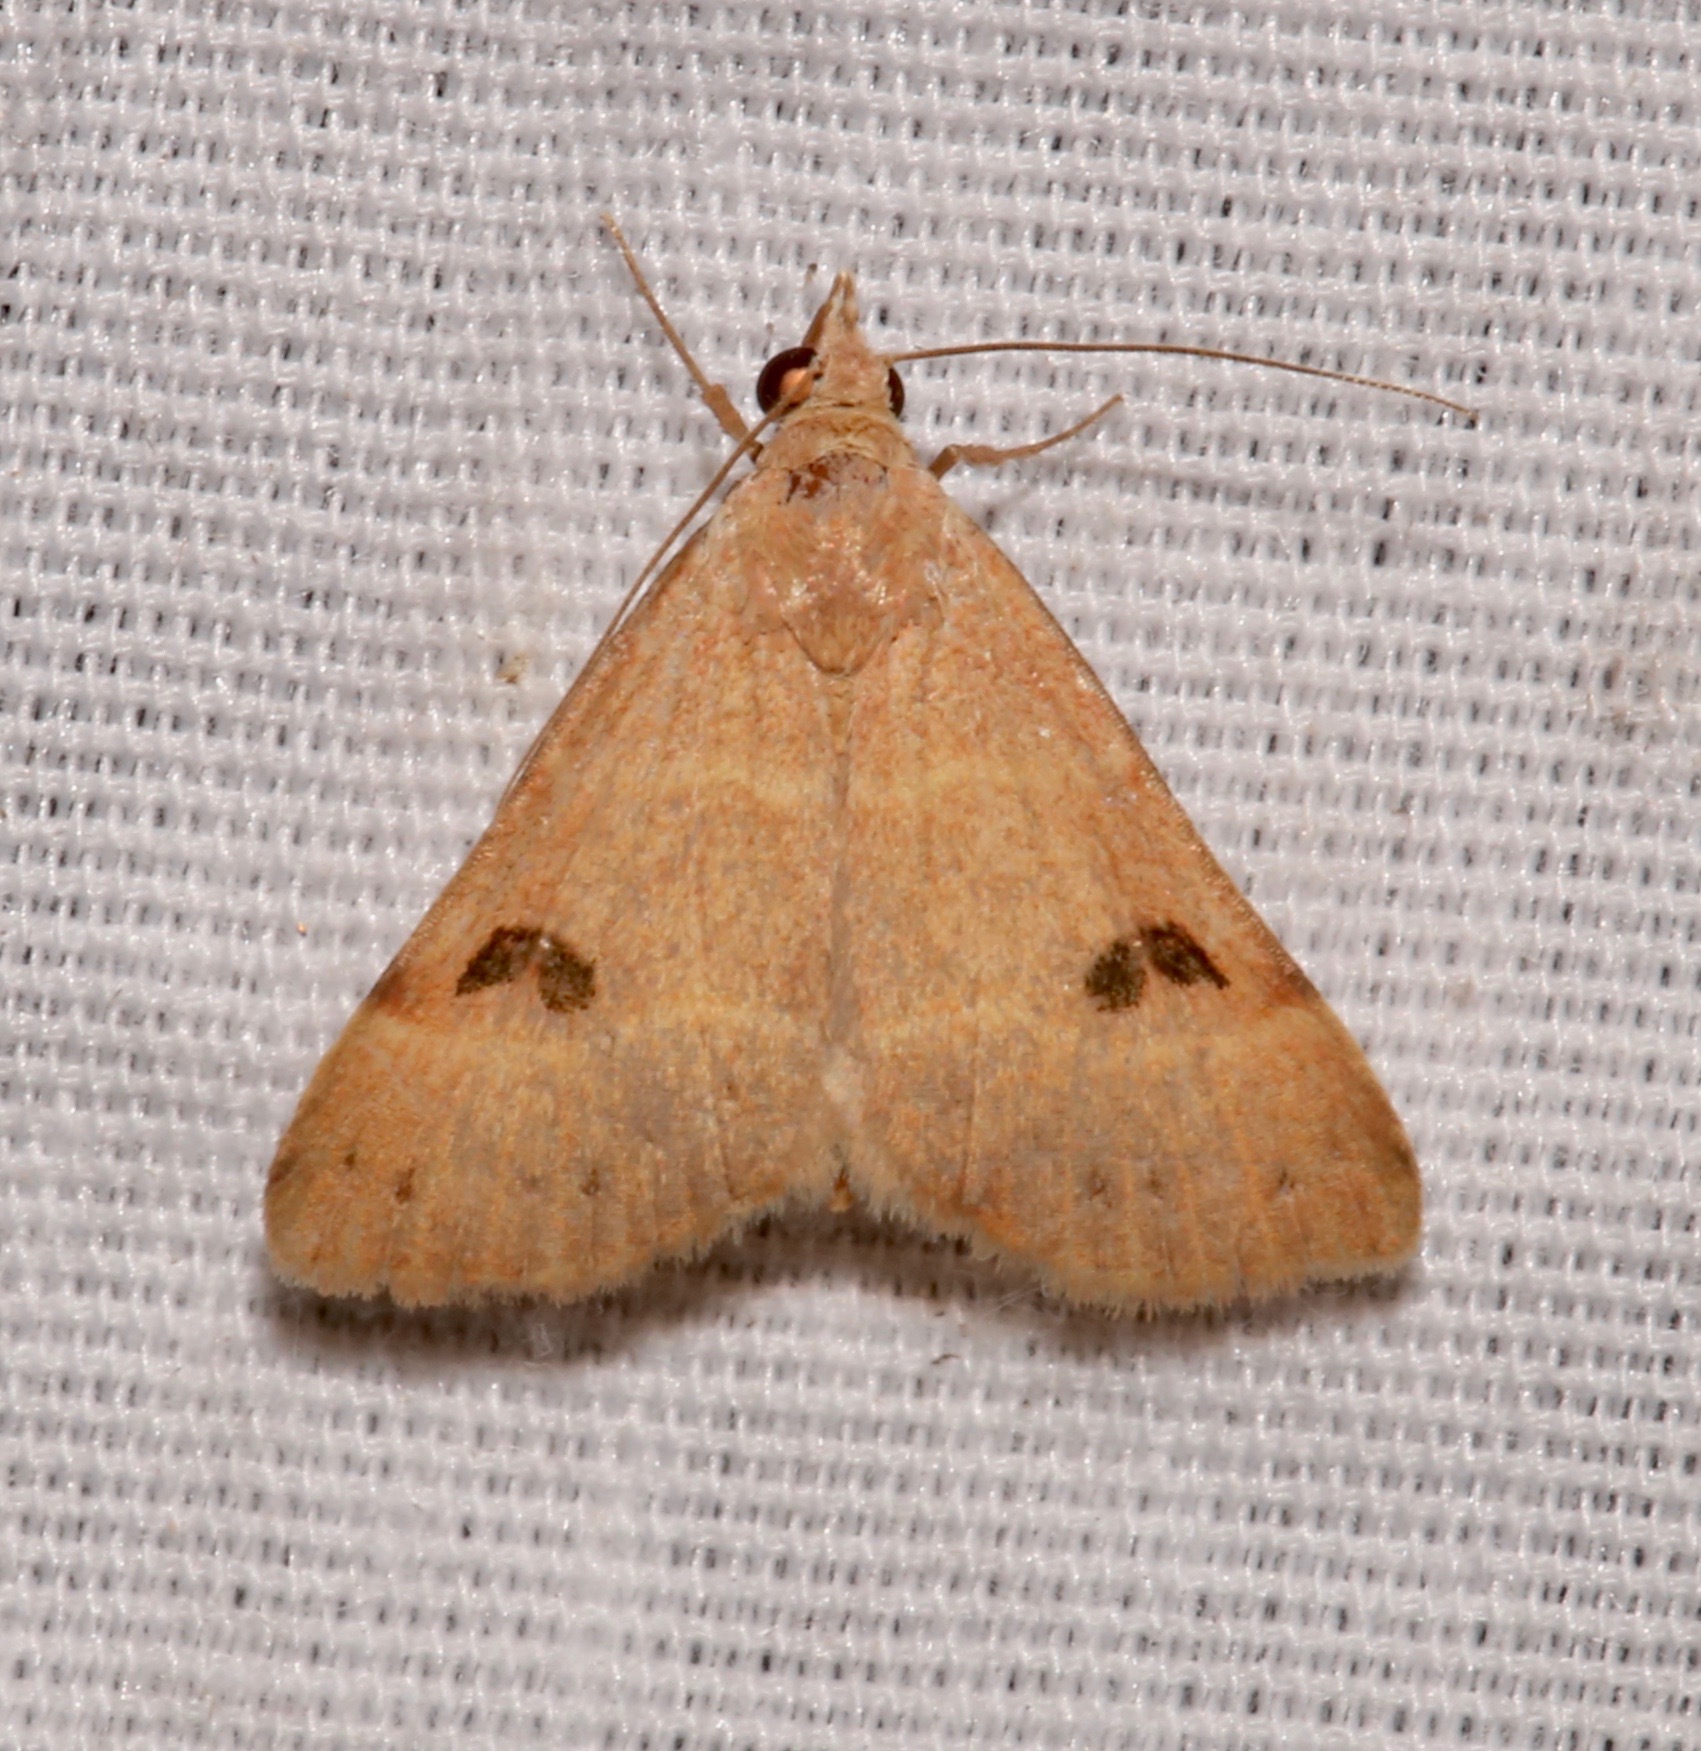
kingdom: Animalia
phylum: Arthropoda
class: Insecta
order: Lepidoptera
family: Erebidae
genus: Hemeroplanis
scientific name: Hemeroplanis rectalis
